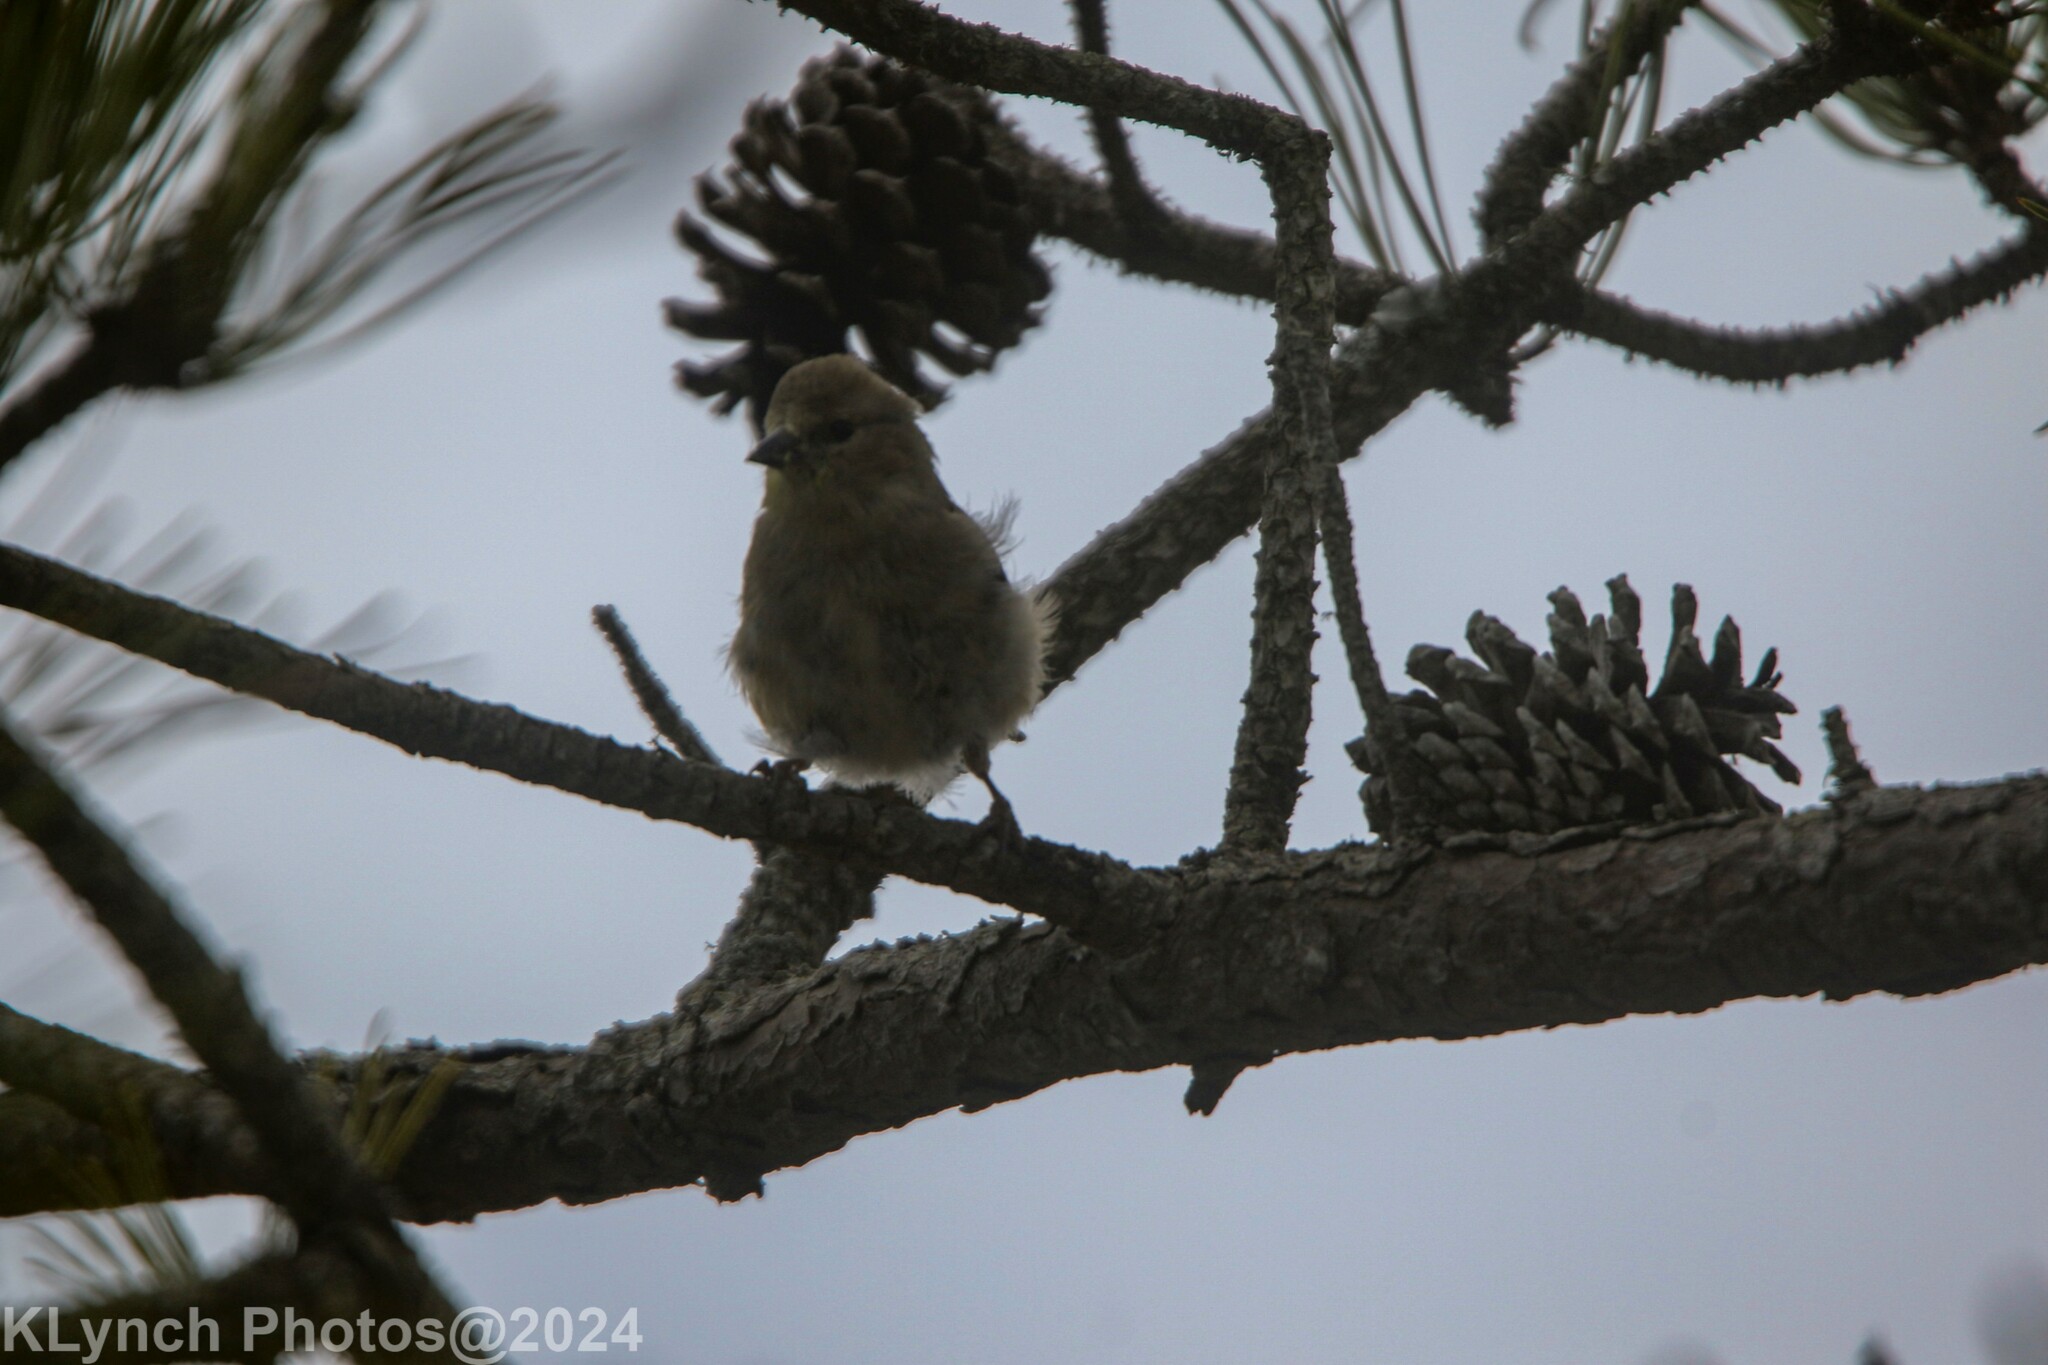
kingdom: Animalia
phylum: Chordata
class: Aves
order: Passeriformes
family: Fringillidae
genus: Spinus
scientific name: Spinus tristis
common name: American goldfinch
